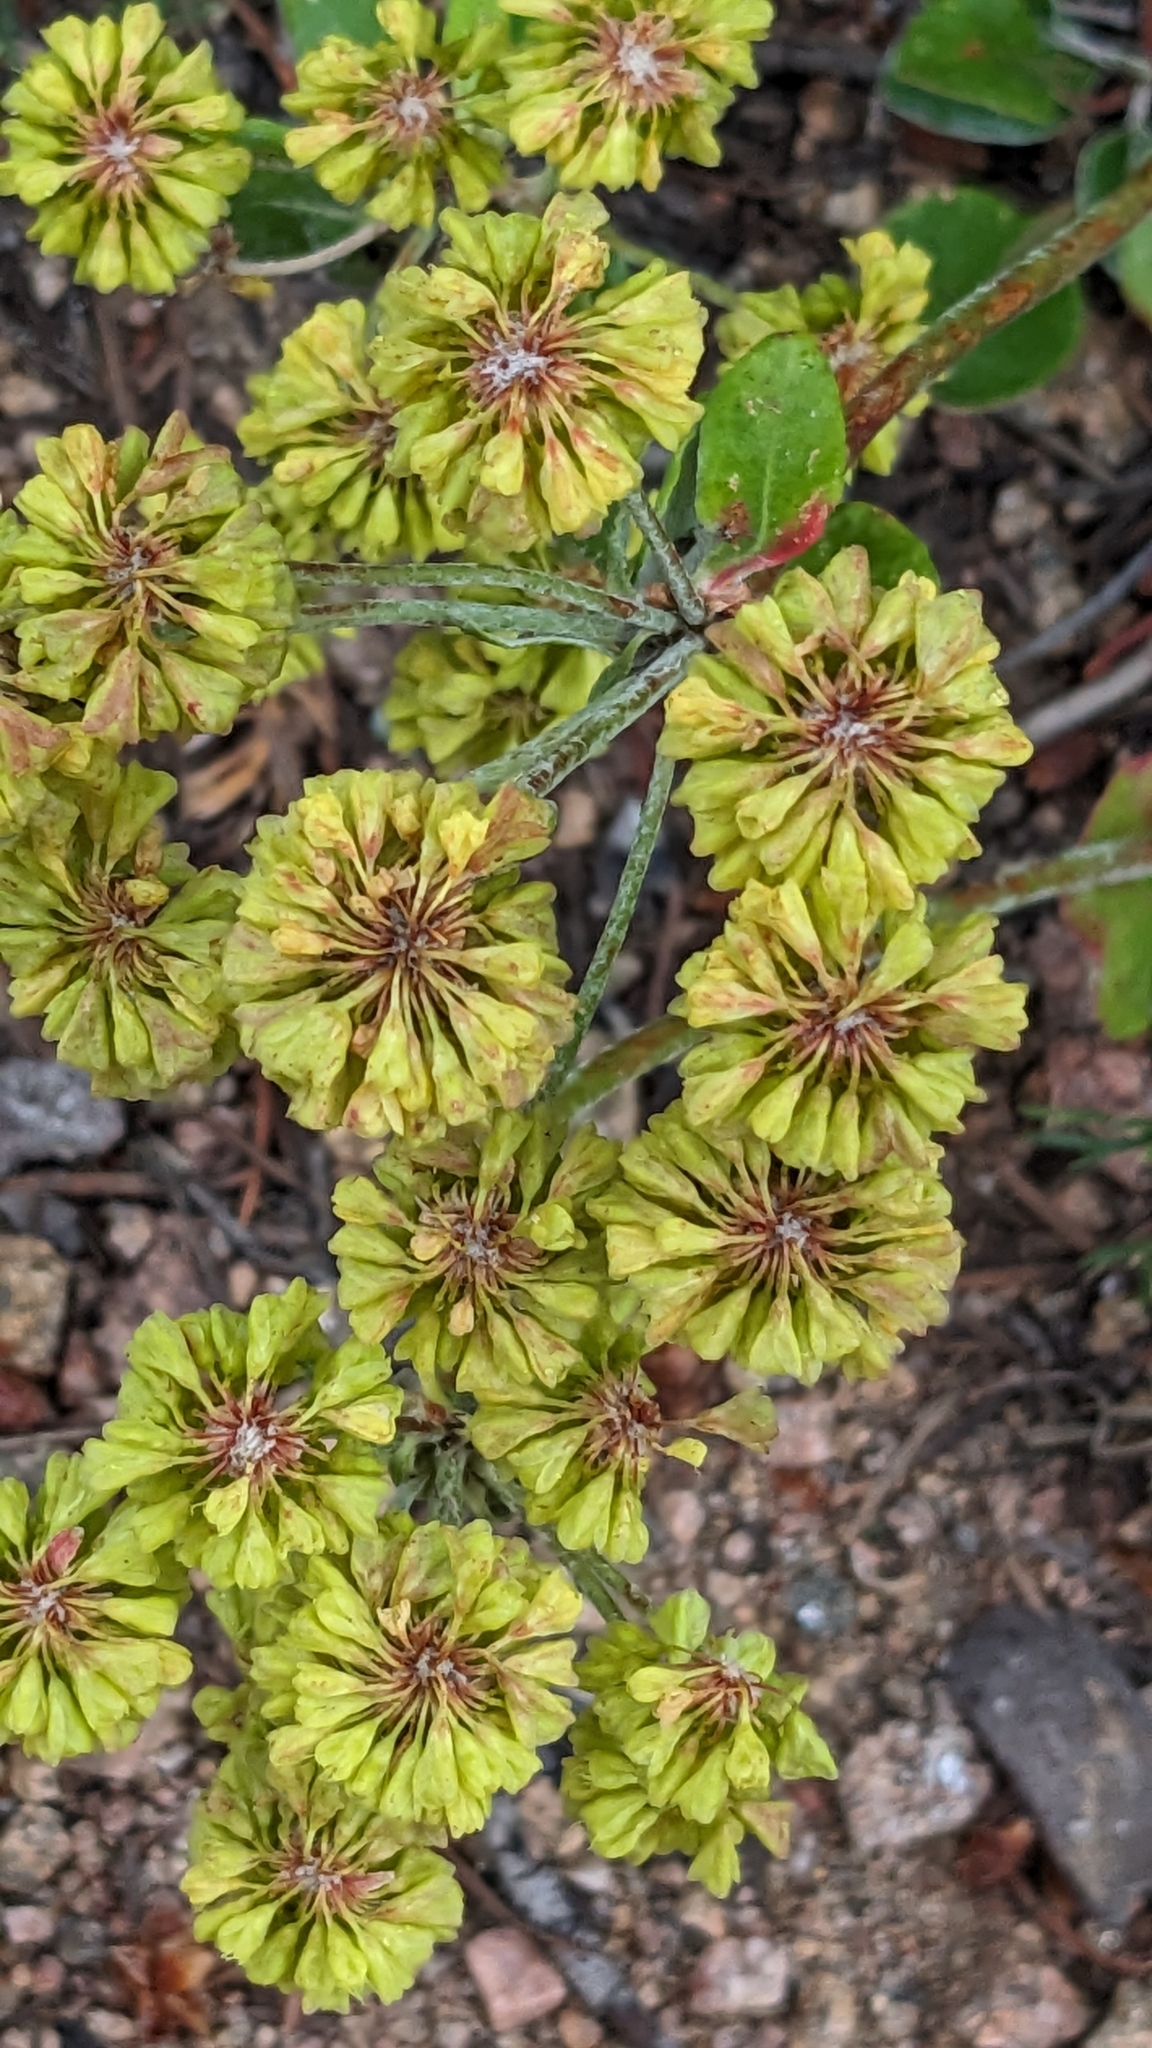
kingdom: Plantae
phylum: Tracheophyta
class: Magnoliopsida
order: Caryophyllales
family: Polygonaceae
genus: Eriogonum
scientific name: Eriogonum umbellatum
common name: Sulfur-buckwheat
